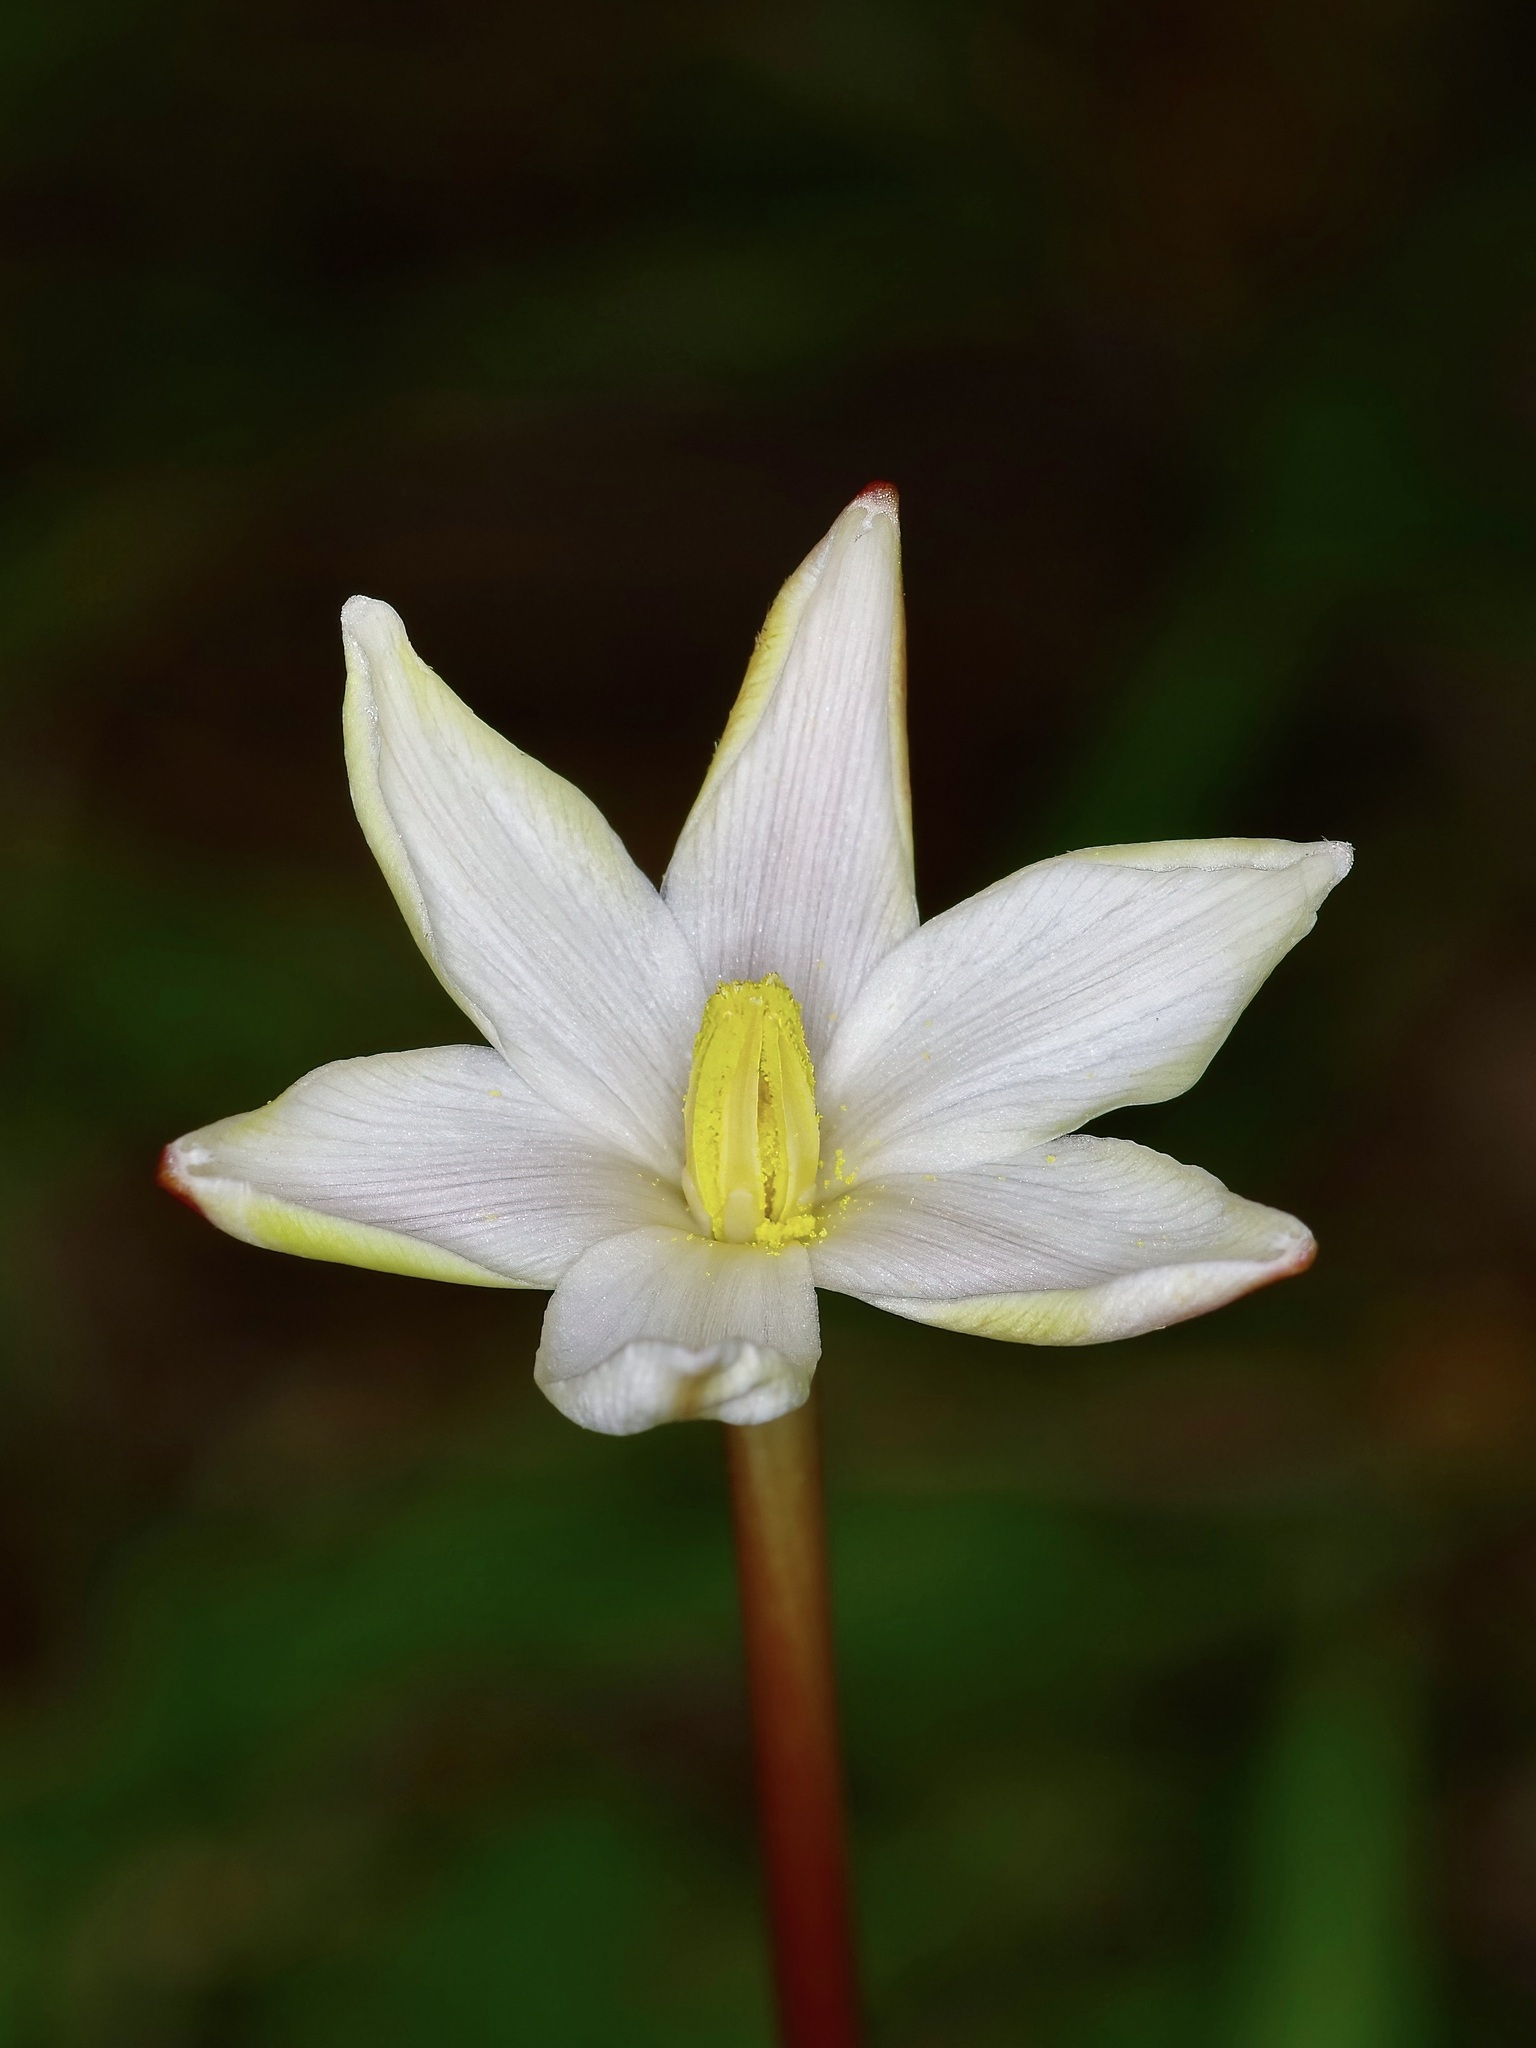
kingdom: Plantae
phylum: Tracheophyta
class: Liliopsida
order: Asparagales
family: Amaryllidaceae
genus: Zephyranthes
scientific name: Zephyranthes chlorosolen
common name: Evening rain-lily
